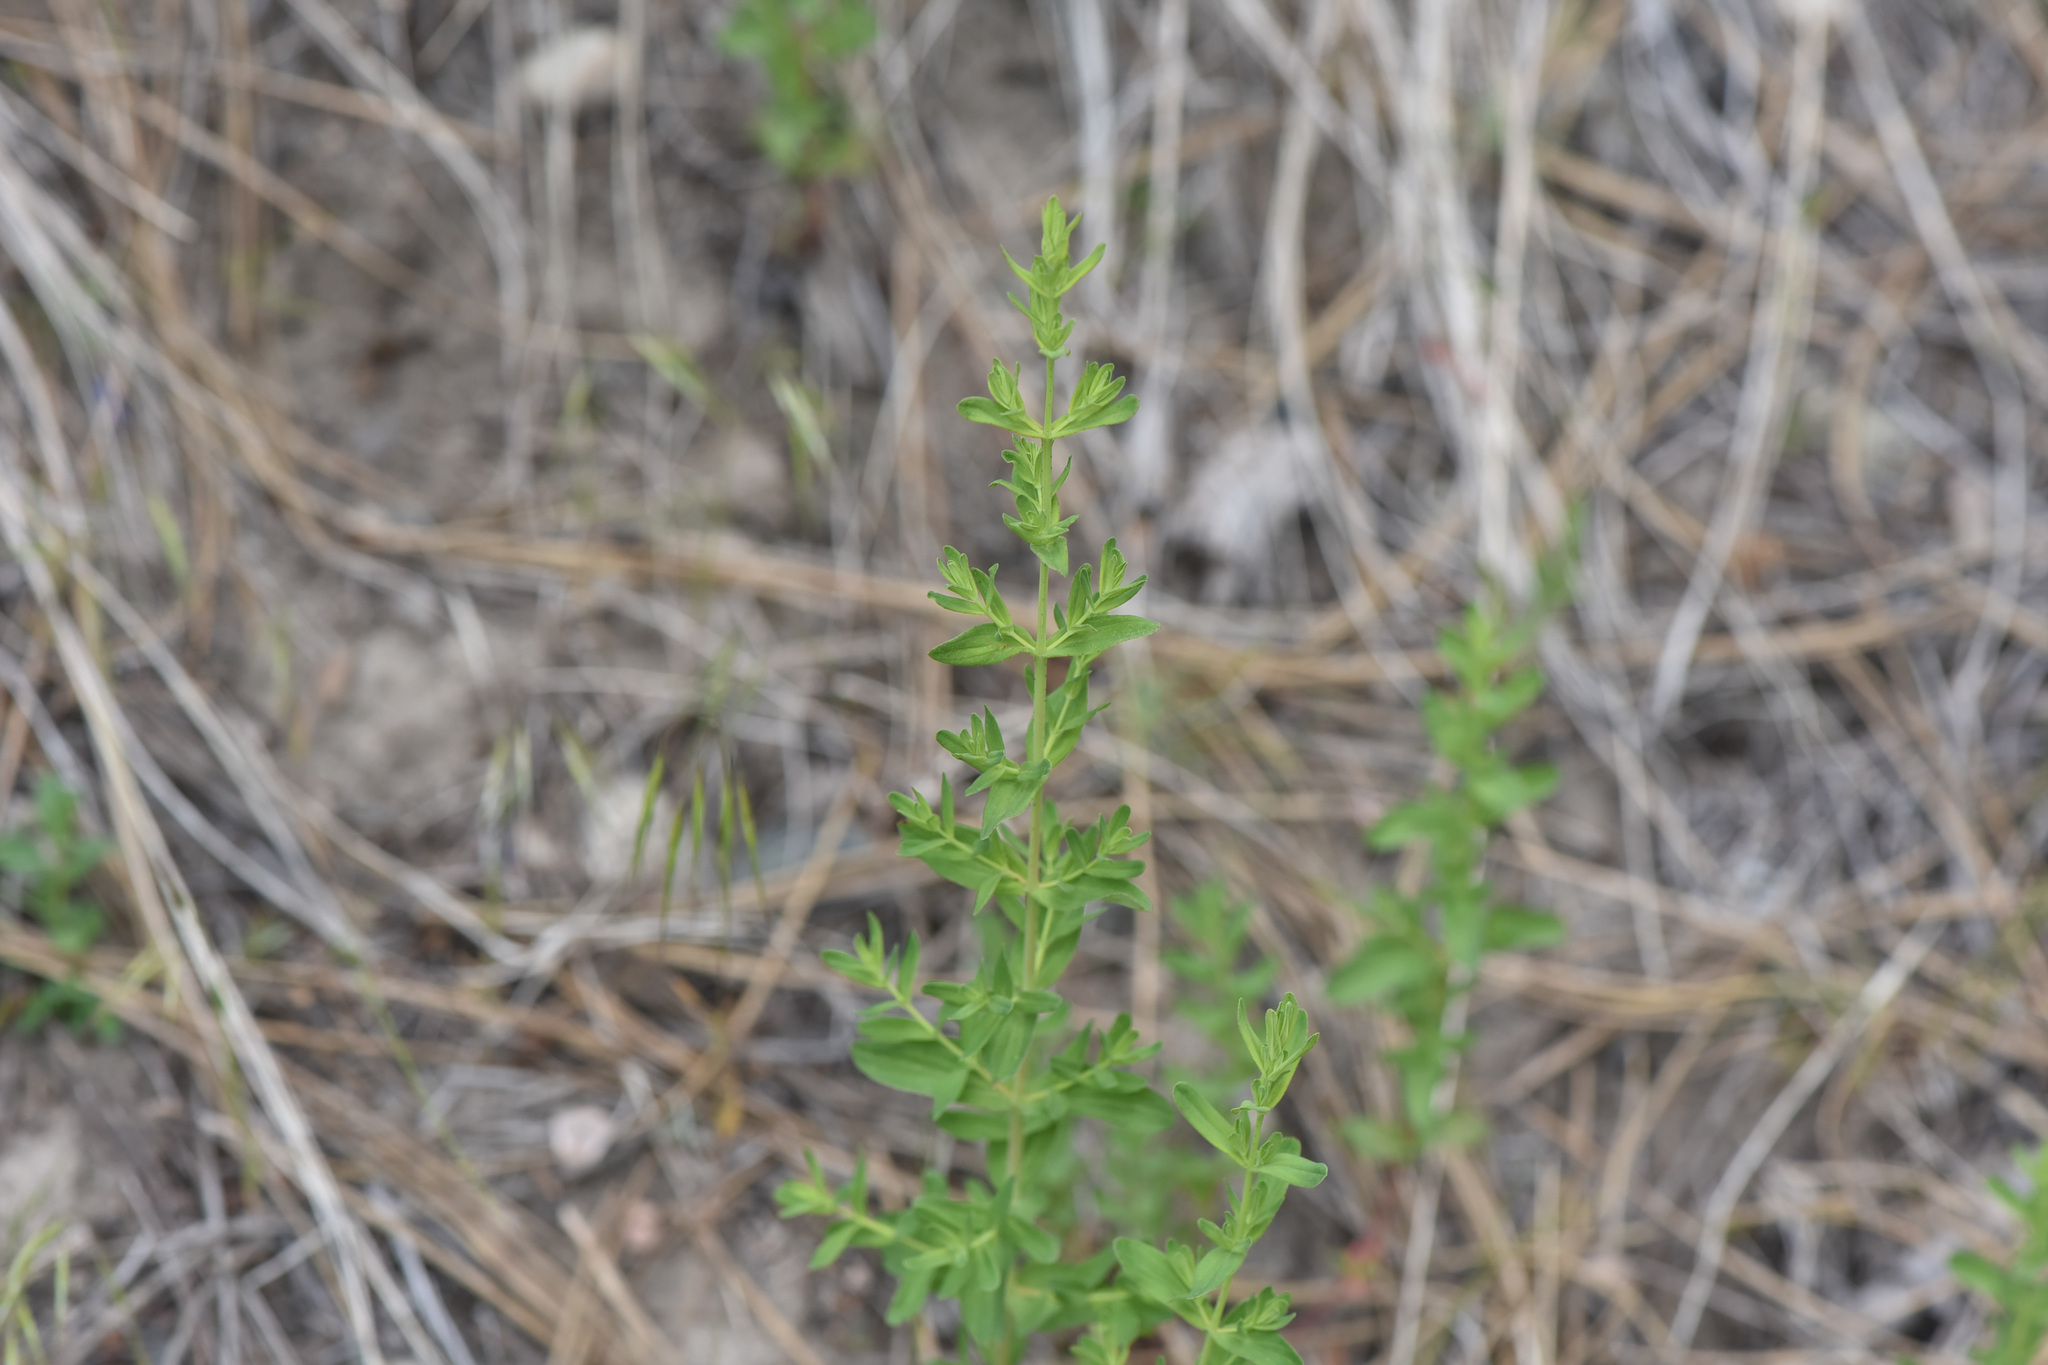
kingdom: Plantae
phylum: Tracheophyta
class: Magnoliopsida
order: Malpighiales
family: Hypericaceae
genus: Hypericum
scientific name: Hypericum perforatum
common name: Common st. johnswort
